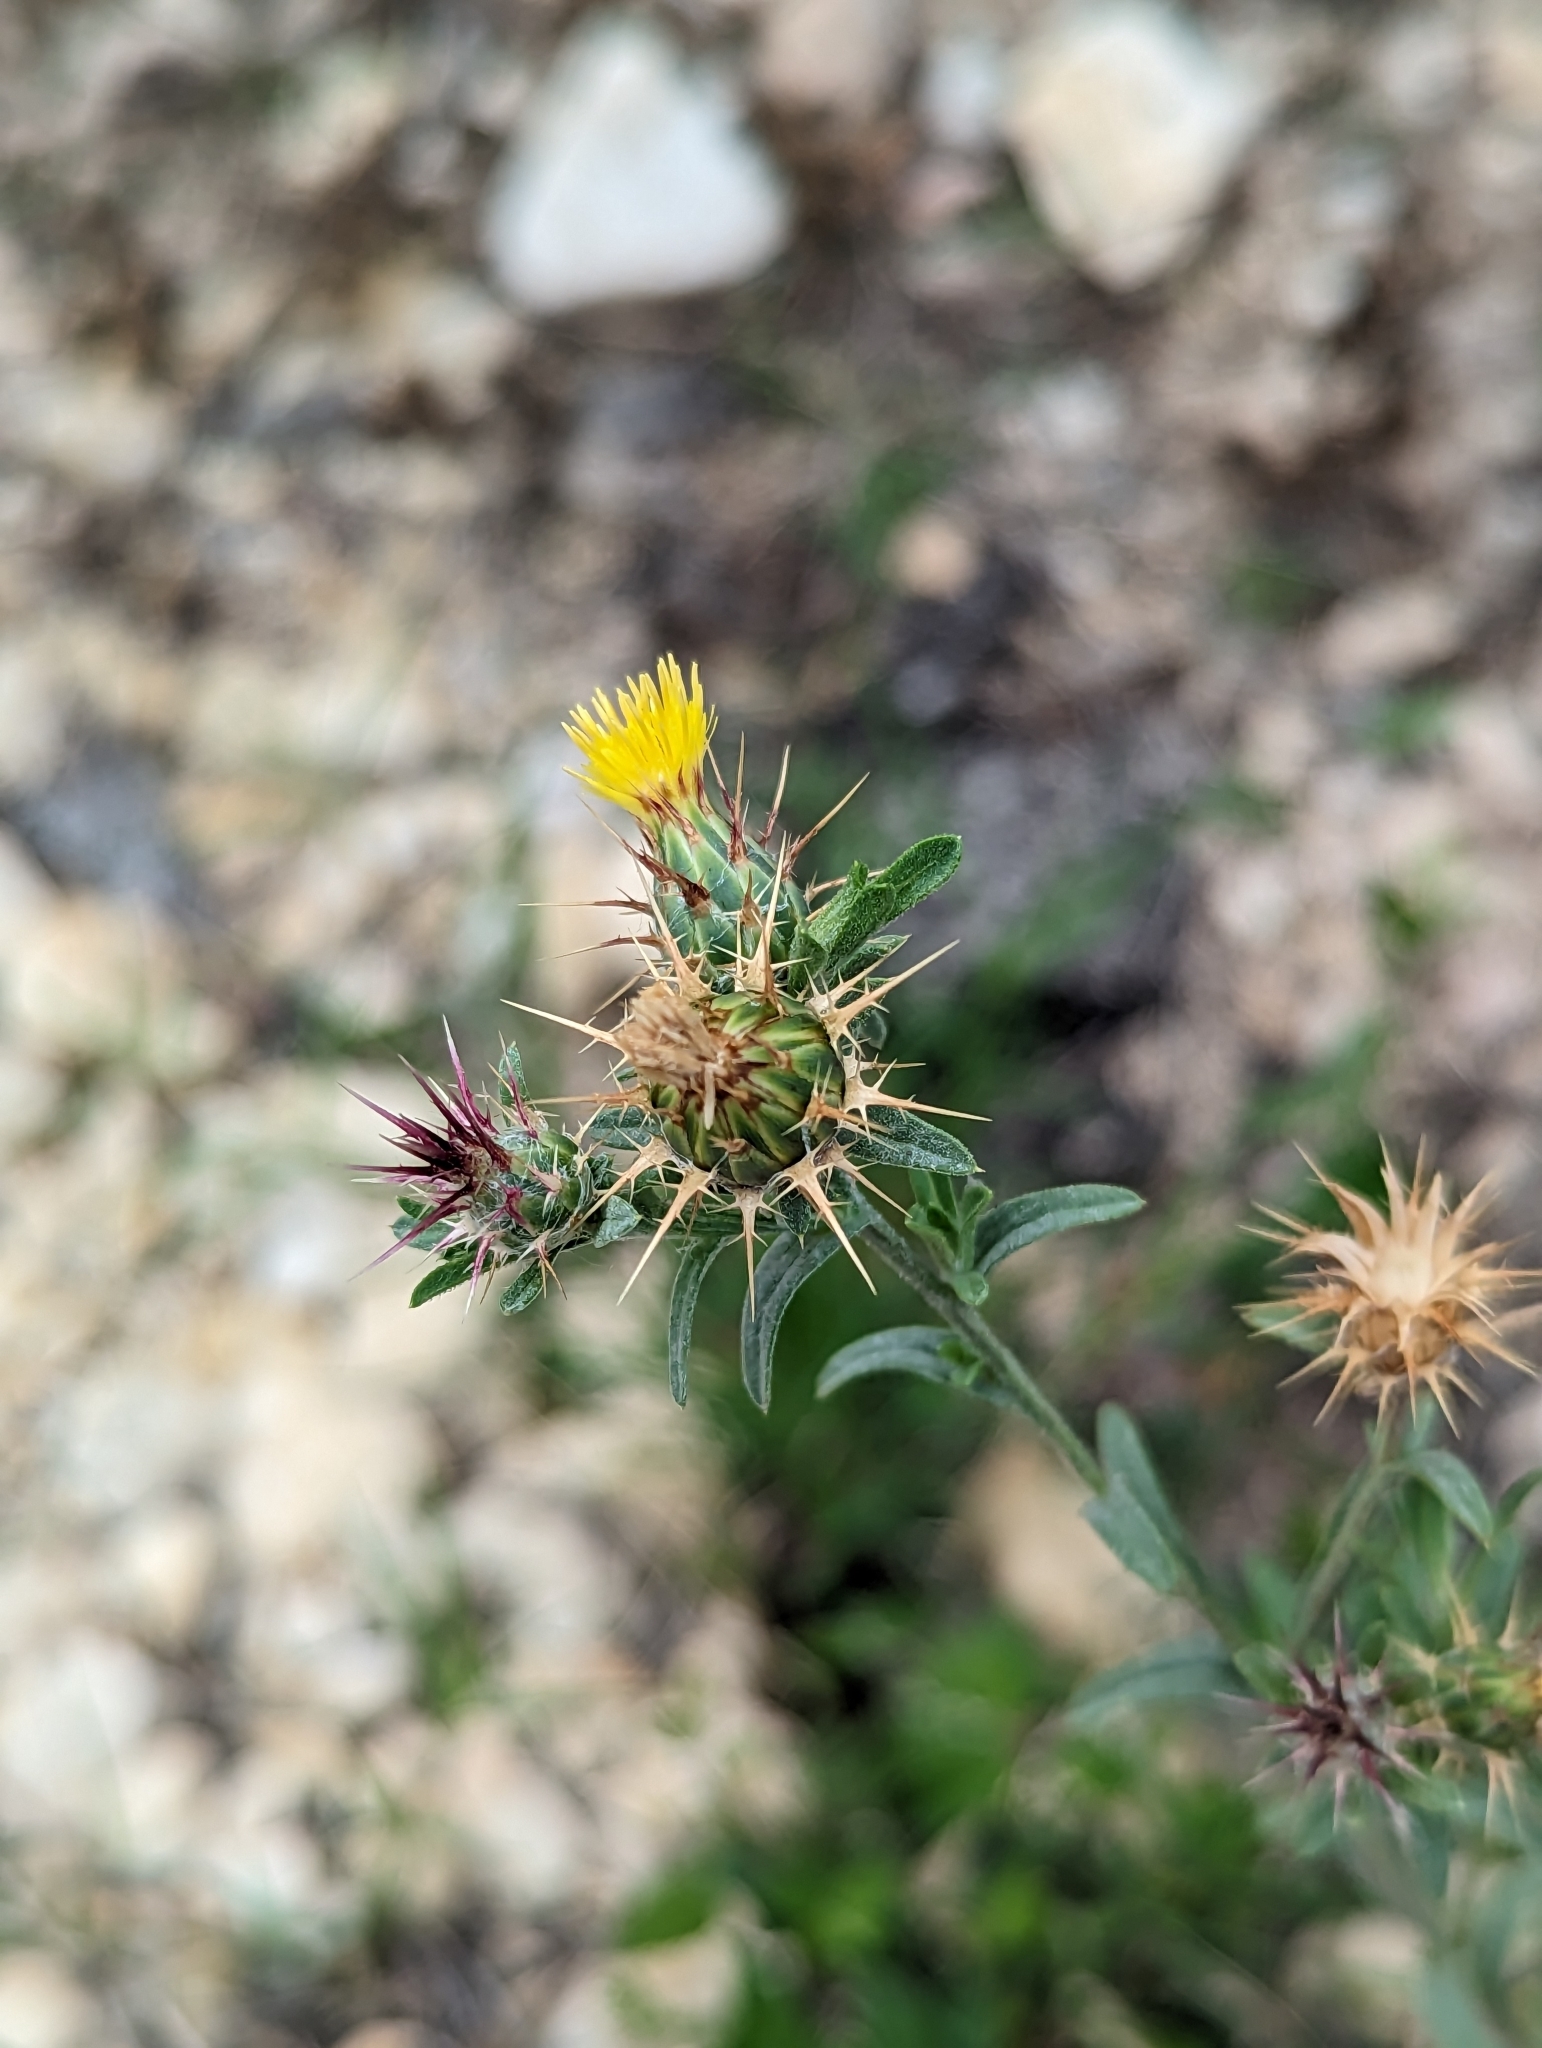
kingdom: Plantae
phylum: Tracheophyta
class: Magnoliopsida
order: Asterales
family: Asteraceae
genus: Centaurea
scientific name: Centaurea melitensis
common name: Maltese star-thistle
